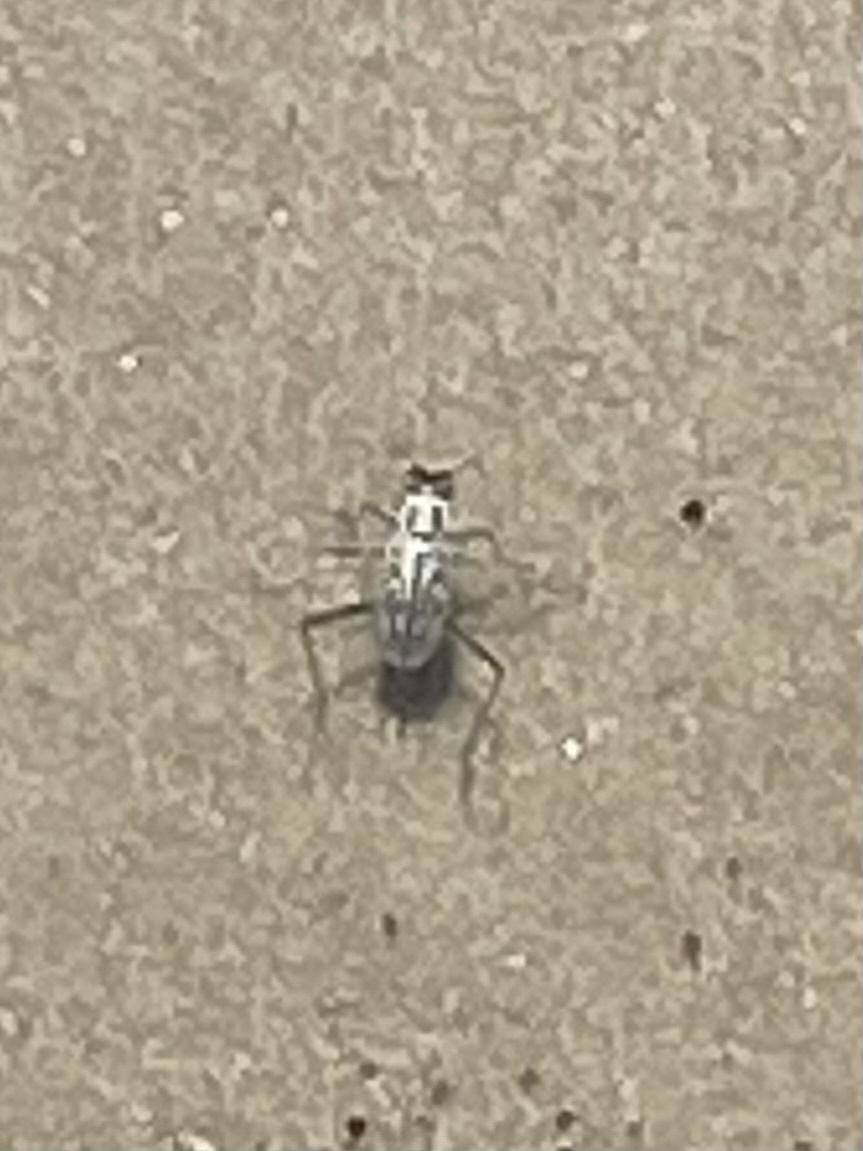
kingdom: Animalia
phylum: Arthropoda
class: Insecta
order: Coleoptera
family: Carabidae
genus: Habroscelimorpha
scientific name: Habroscelimorpha dorsalis
